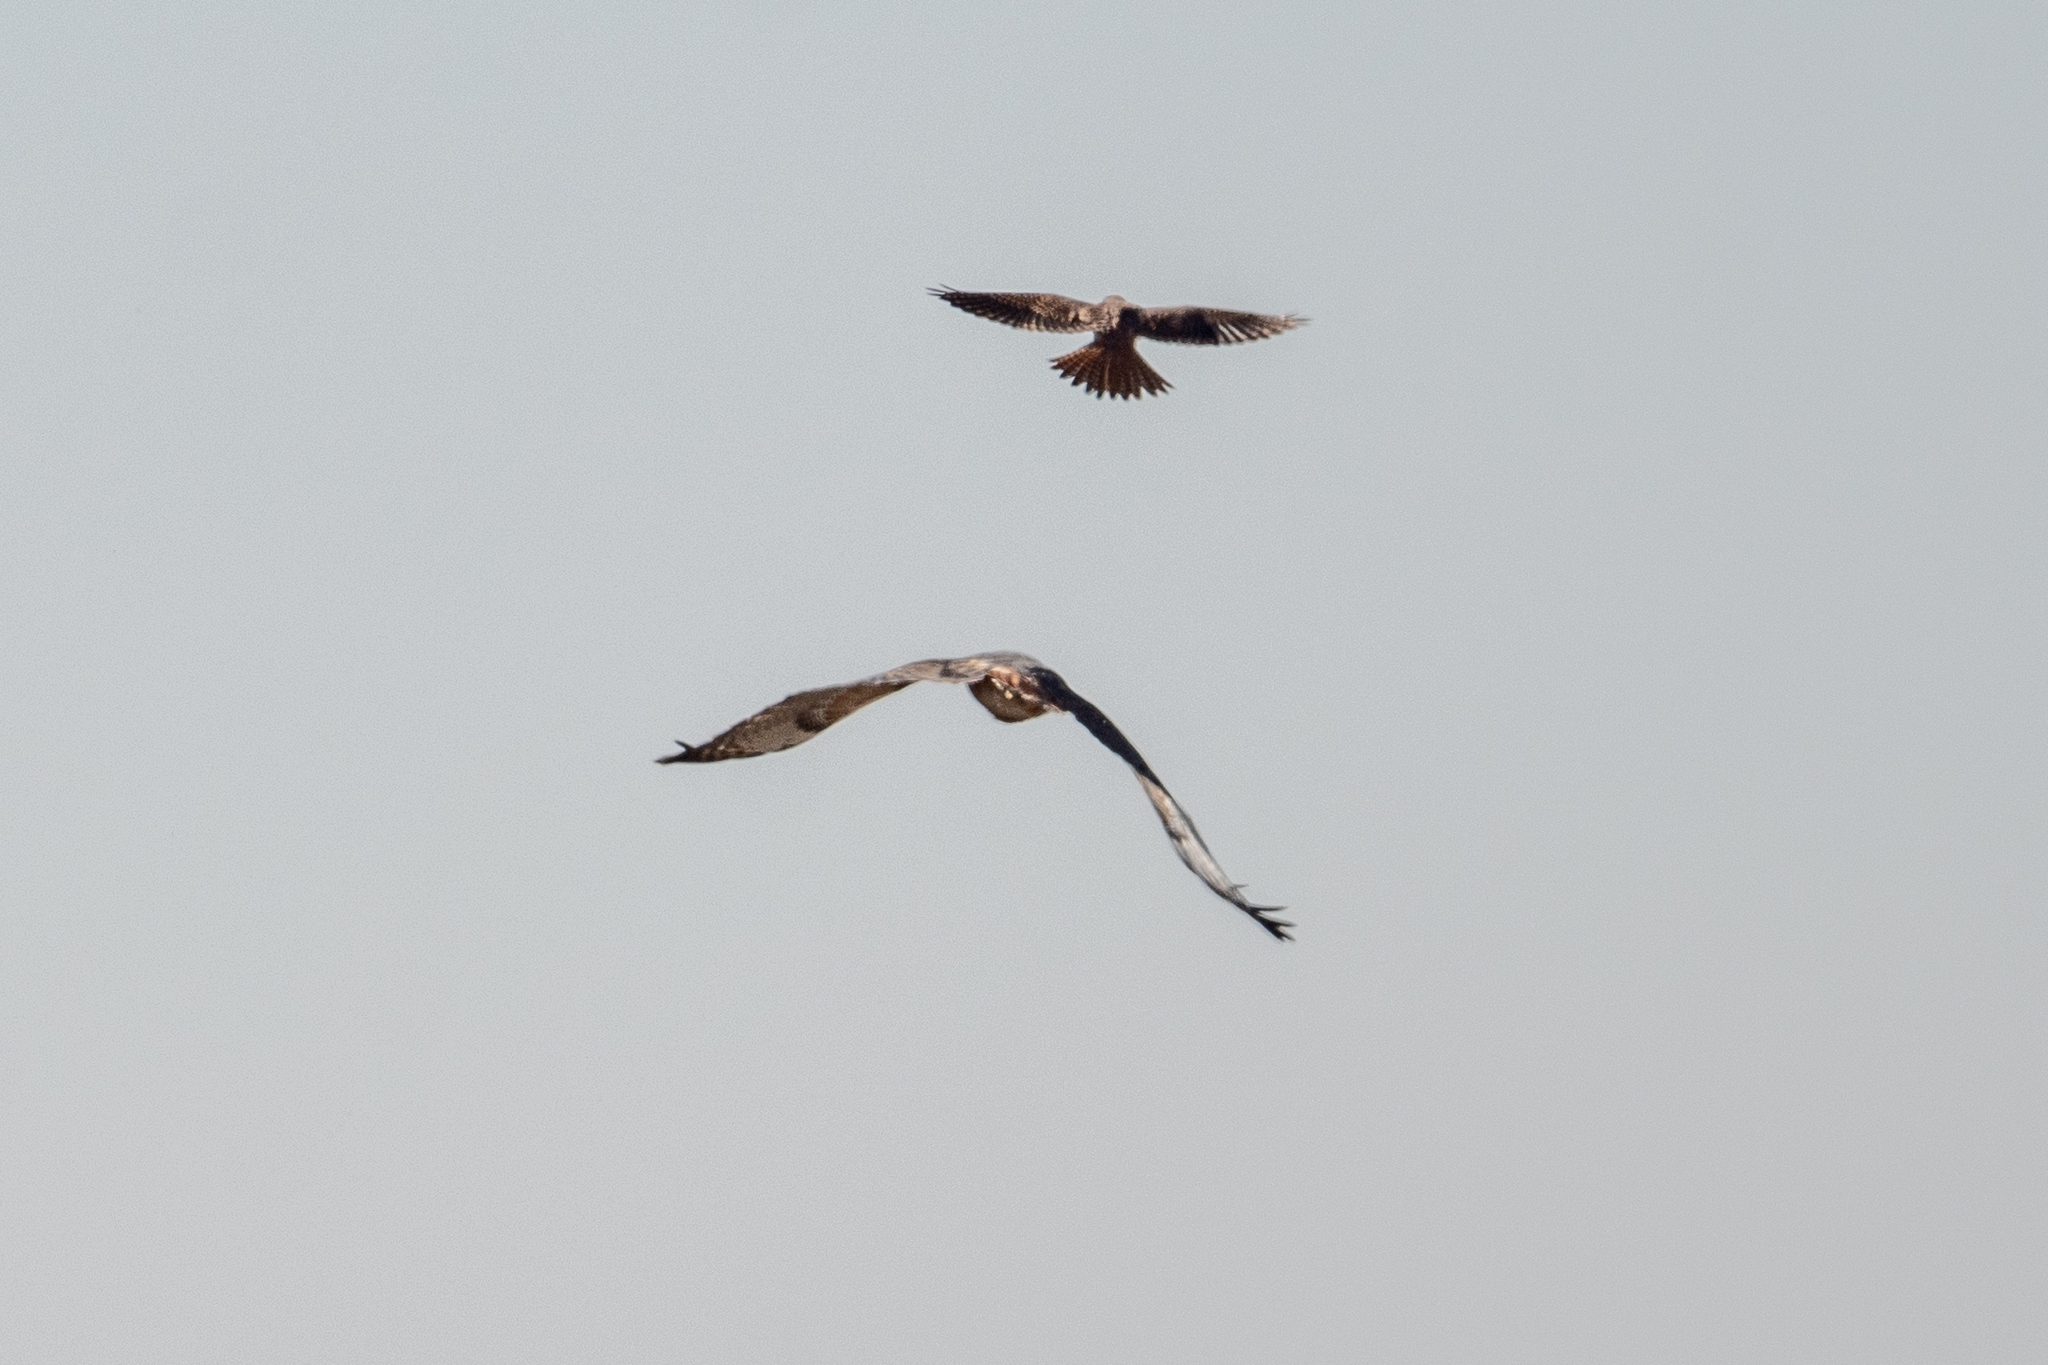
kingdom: Animalia
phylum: Chordata
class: Aves
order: Falconiformes
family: Falconidae
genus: Falco
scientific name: Falco sparverius
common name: American kestrel
